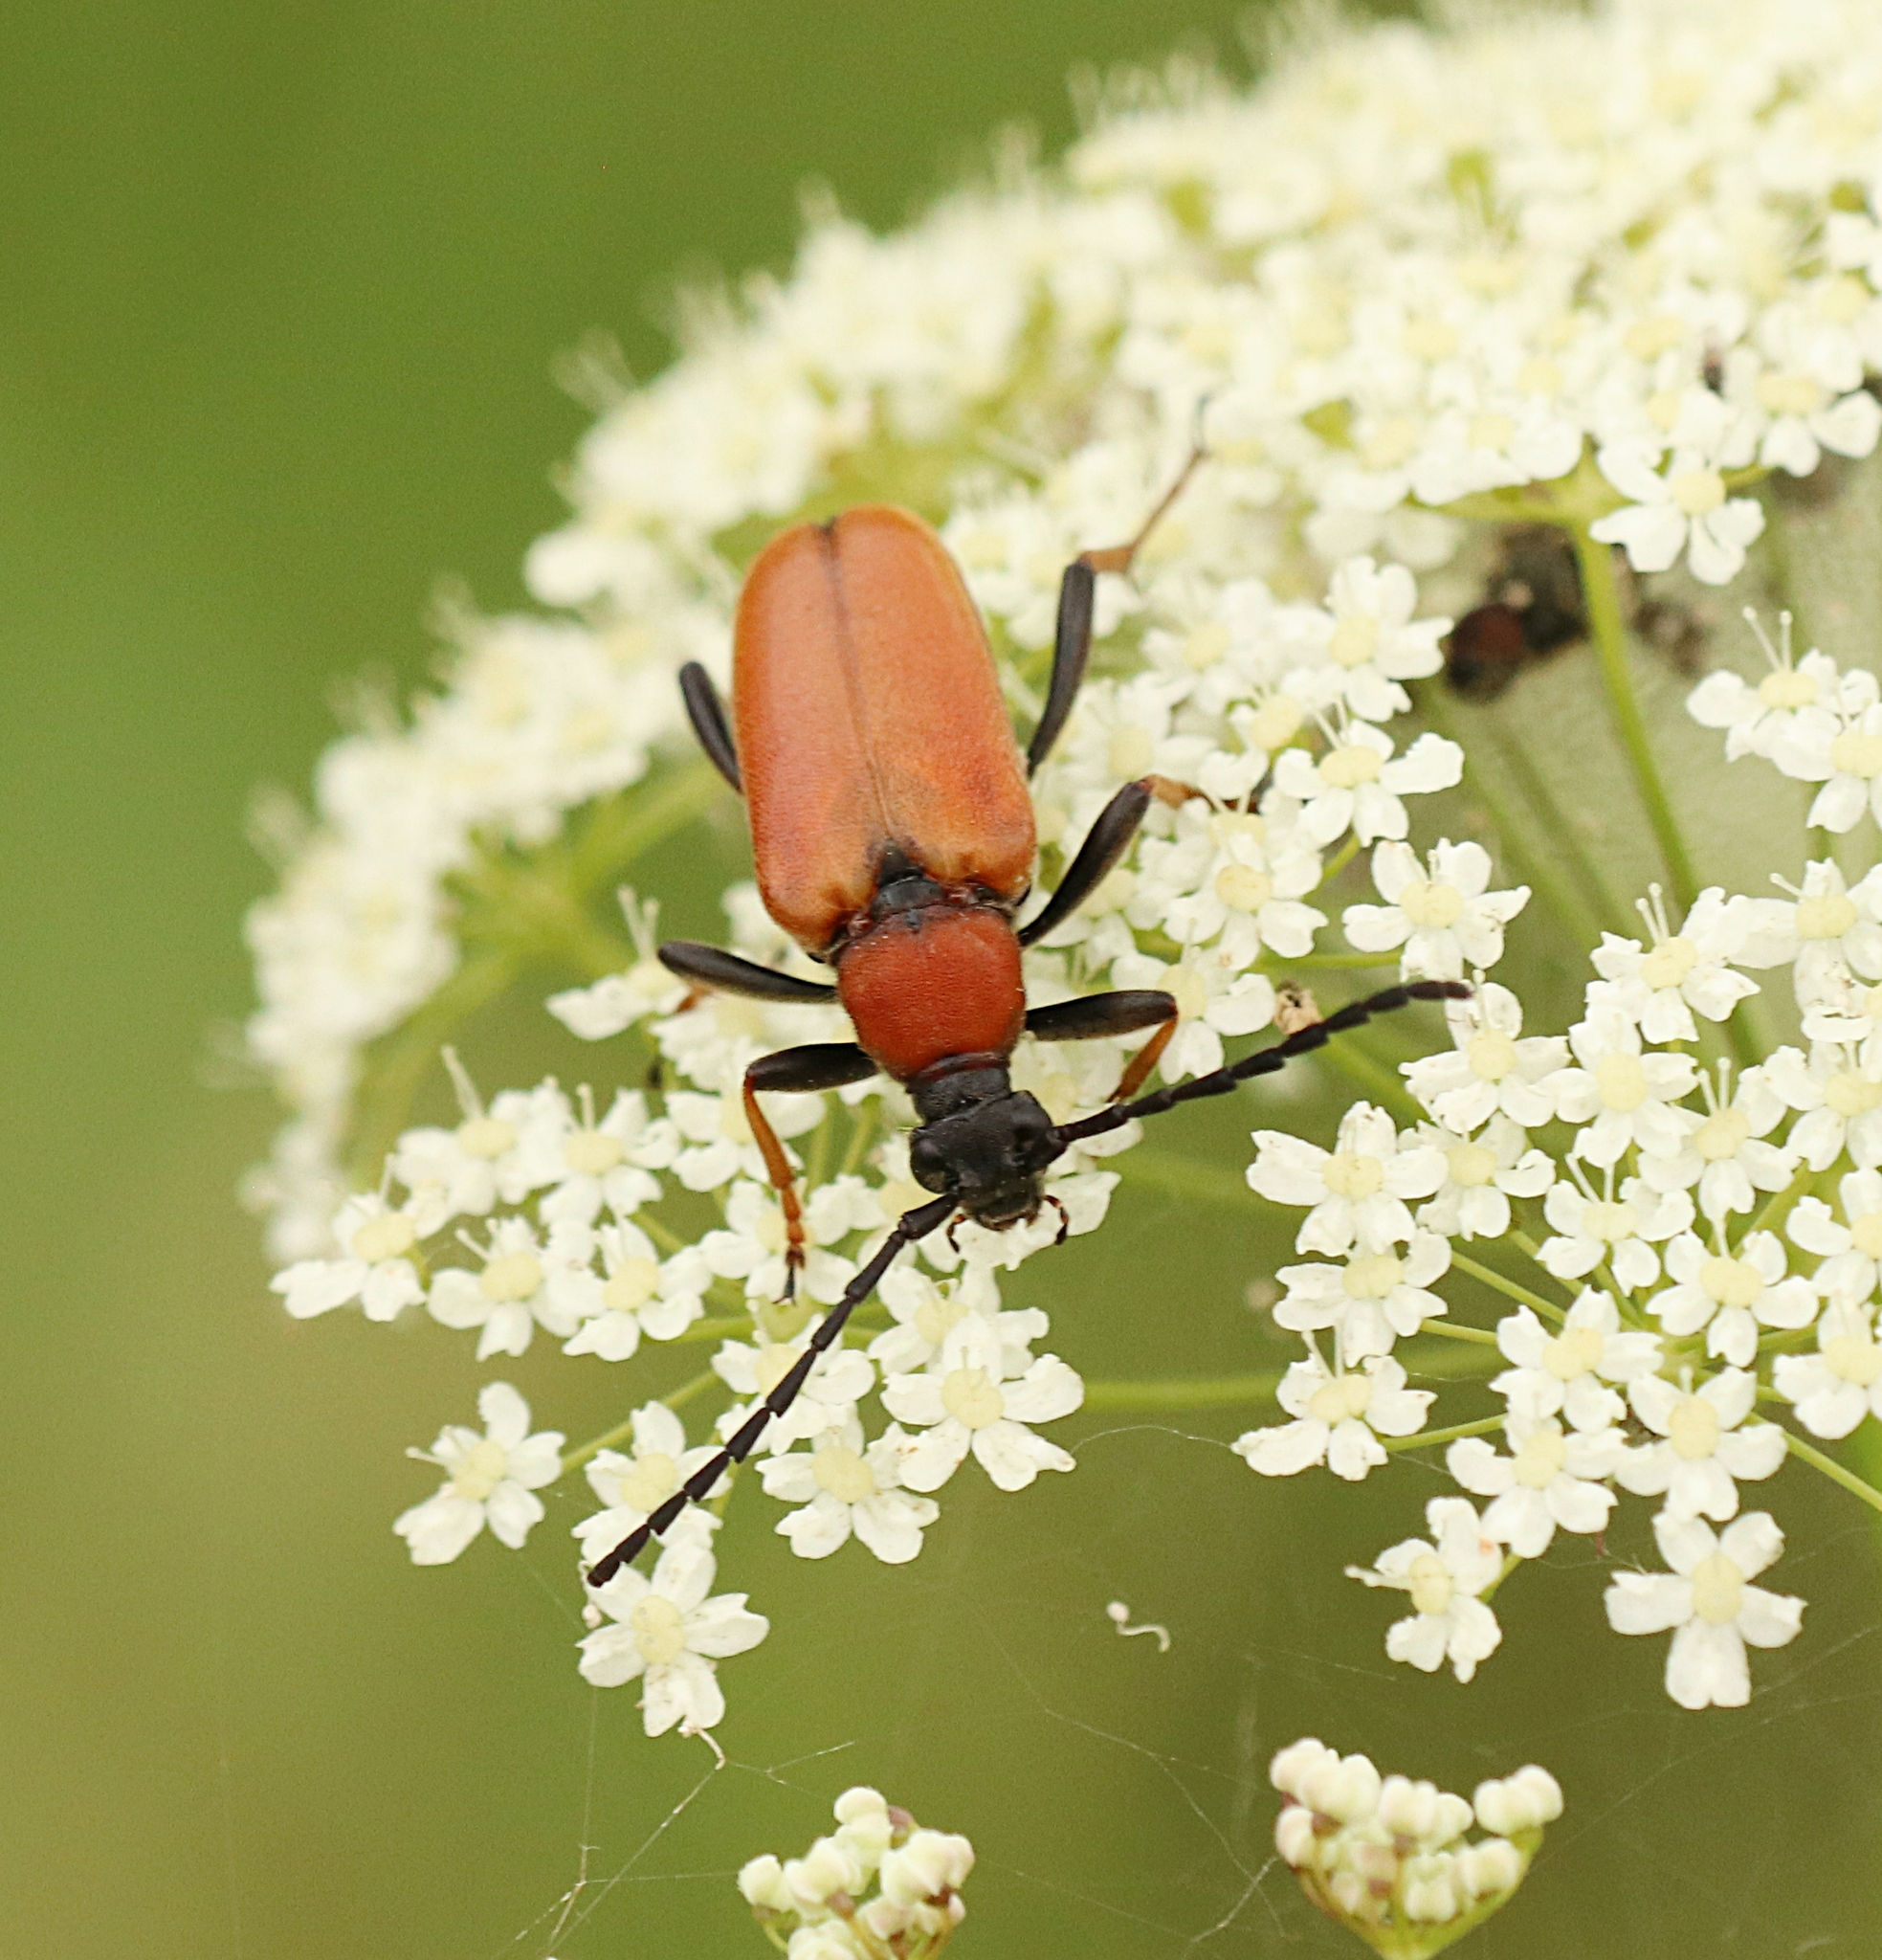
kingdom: Animalia
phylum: Arthropoda
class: Insecta
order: Coleoptera
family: Cerambycidae
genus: Stictoleptura
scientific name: Stictoleptura rubra
